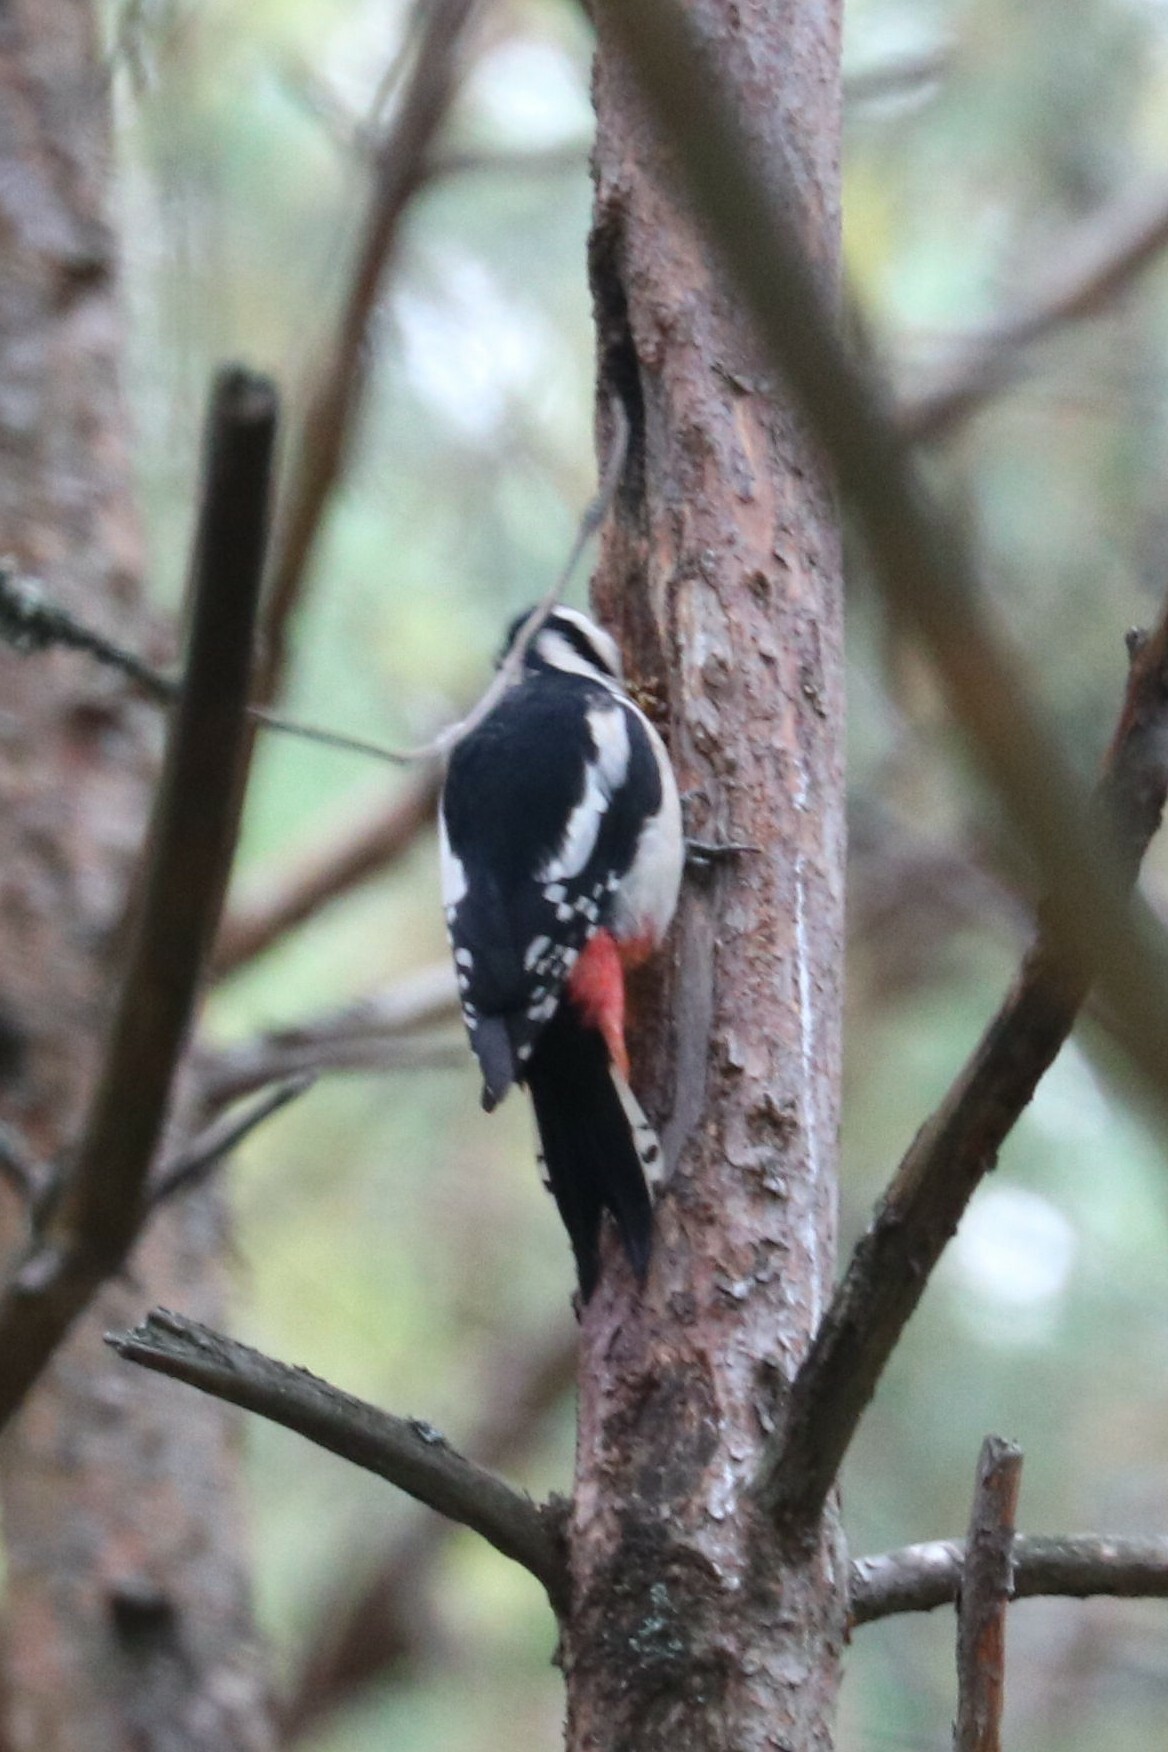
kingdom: Animalia
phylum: Chordata
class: Aves
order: Piciformes
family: Picidae
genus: Dendrocopos
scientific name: Dendrocopos major
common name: Great spotted woodpecker
